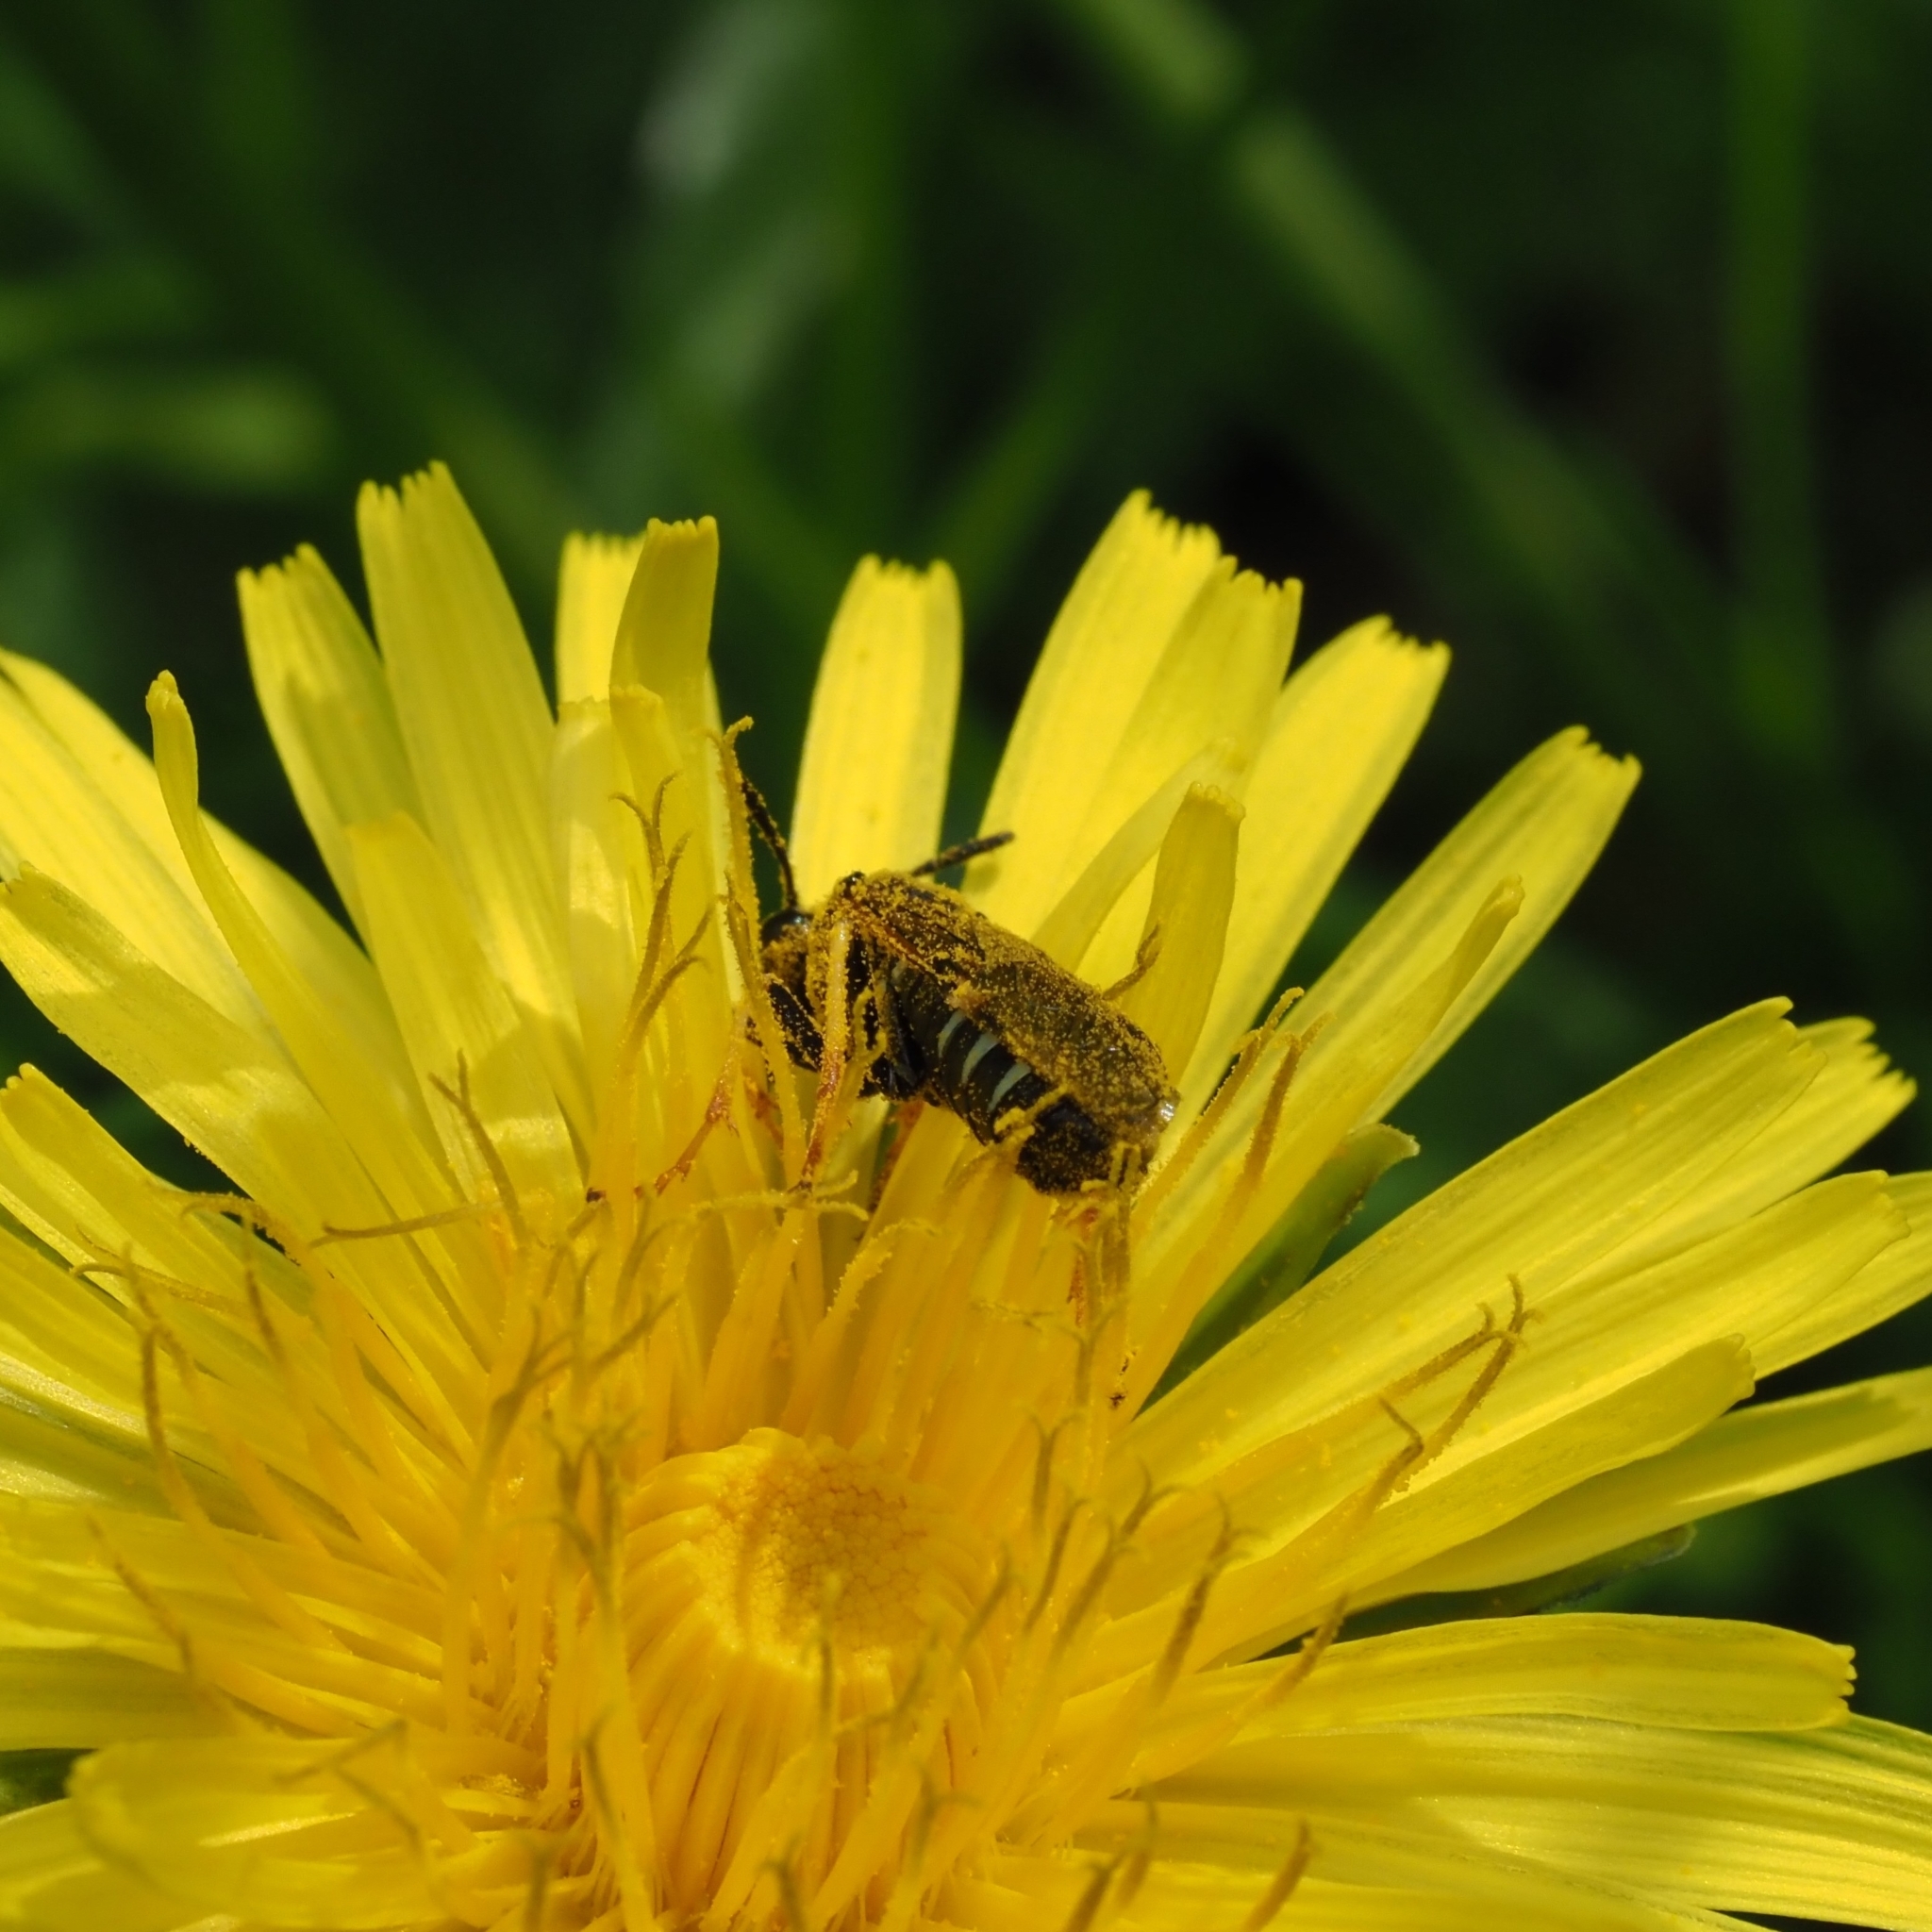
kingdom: Animalia
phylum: Arthropoda
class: Insecta
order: Hymenoptera
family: Tenthredinidae
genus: Tenthredo
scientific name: Tenthredo koehleri
